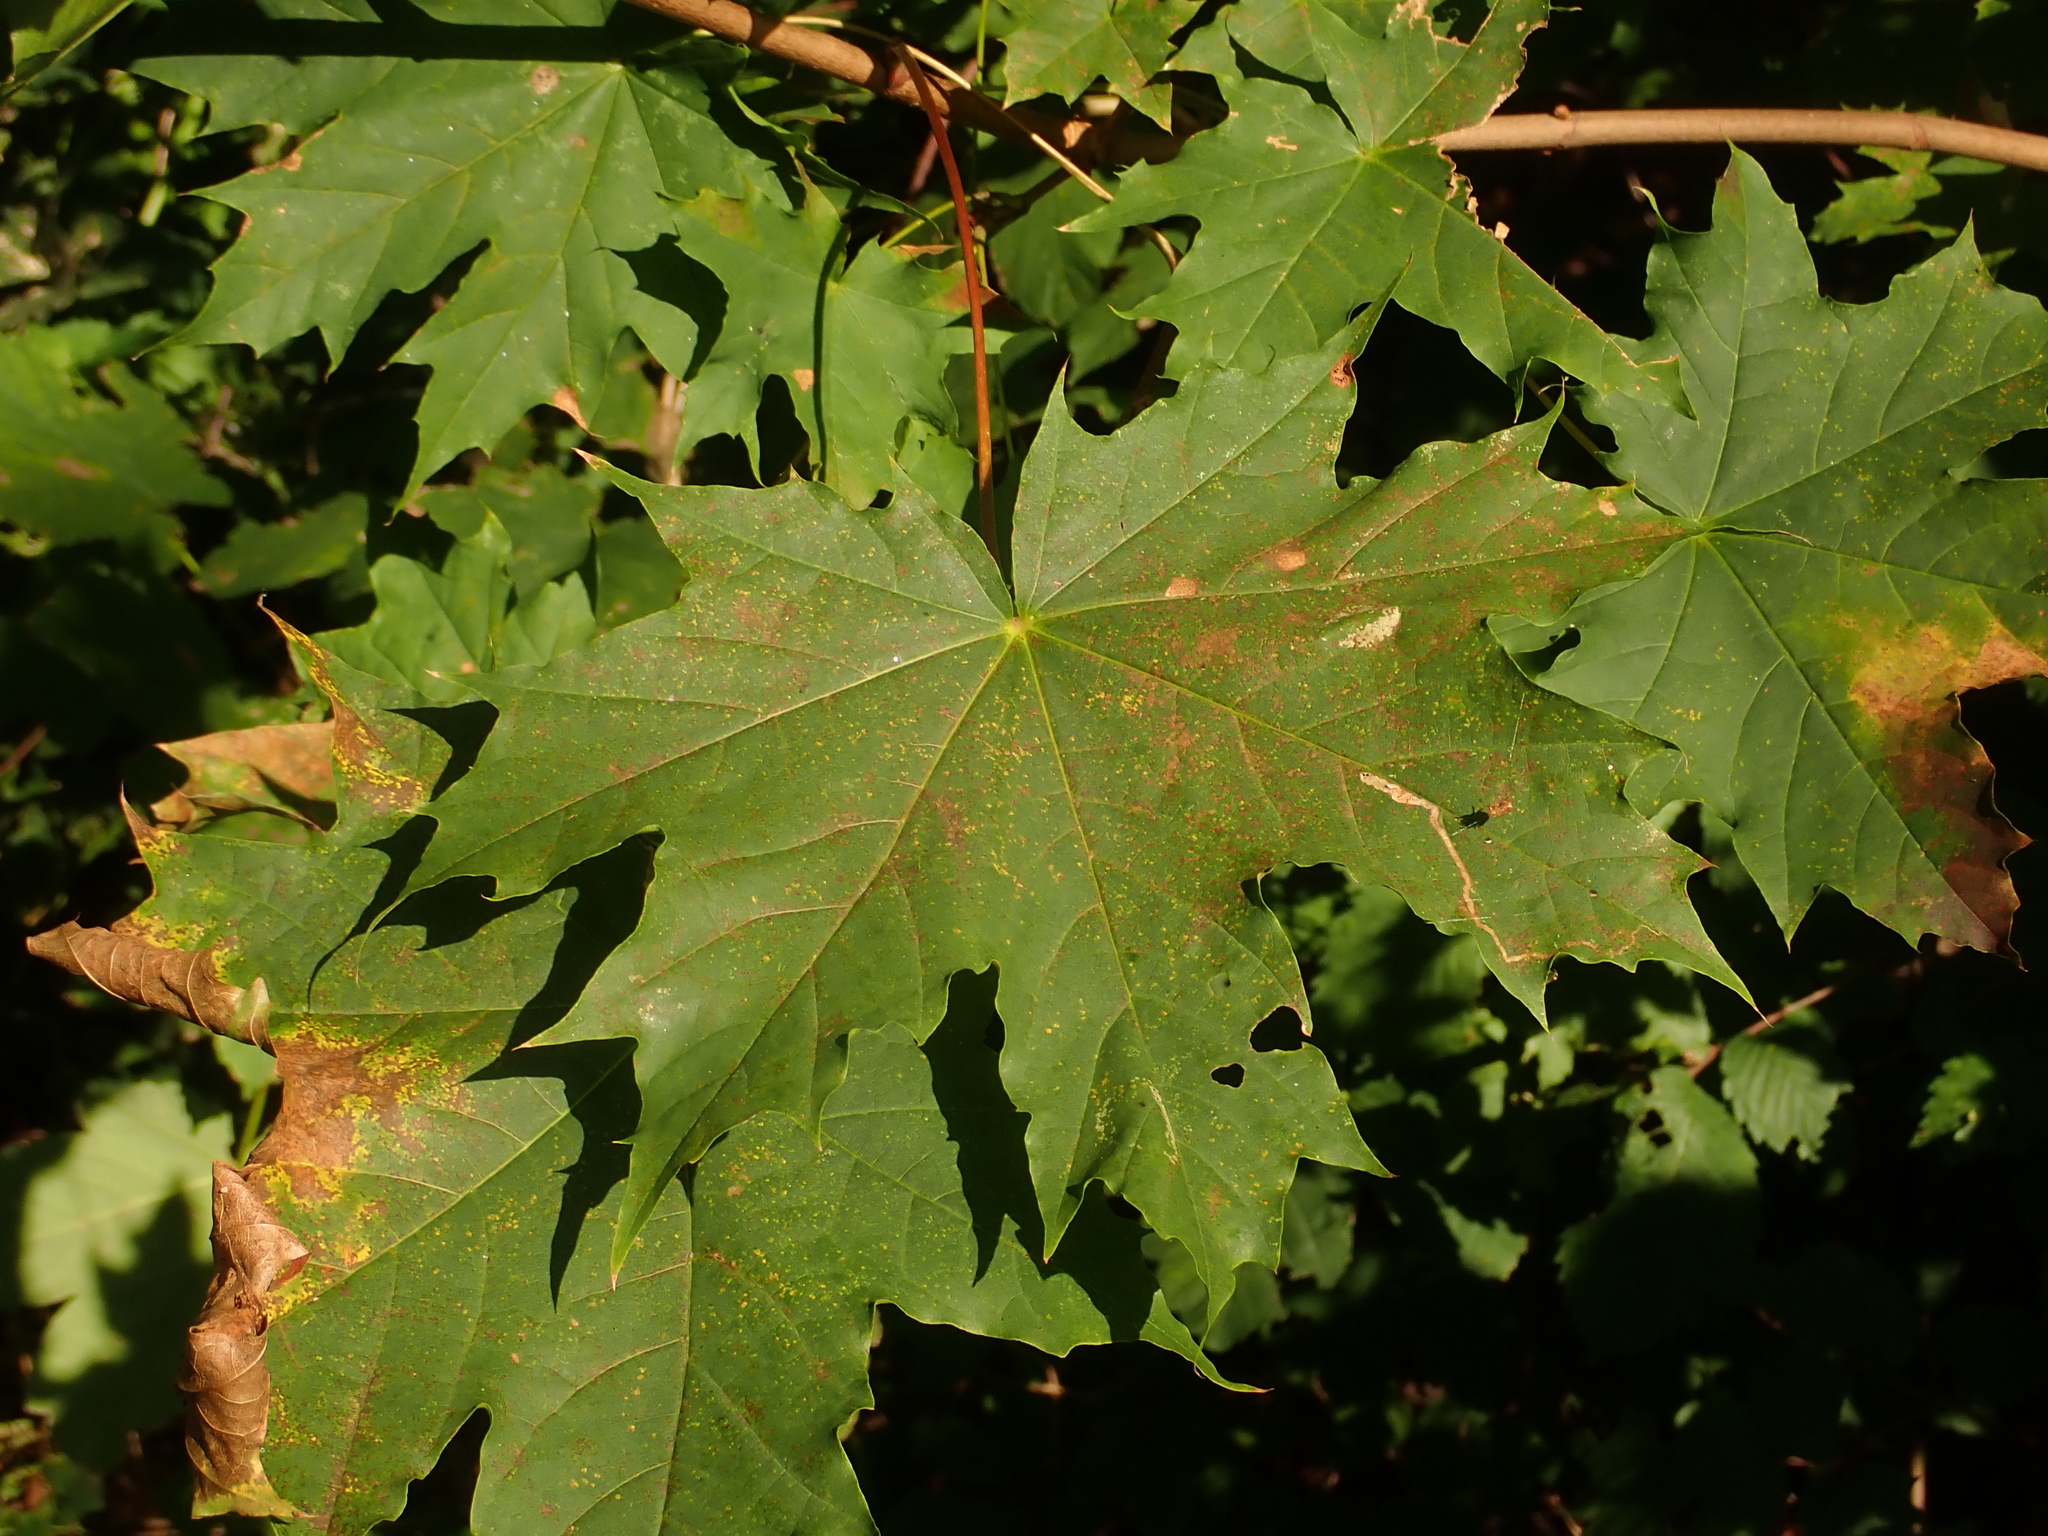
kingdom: Plantae
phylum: Tracheophyta
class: Magnoliopsida
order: Sapindales
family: Sapindaceae
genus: Acer
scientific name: Acer platanoides
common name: Norway maple
